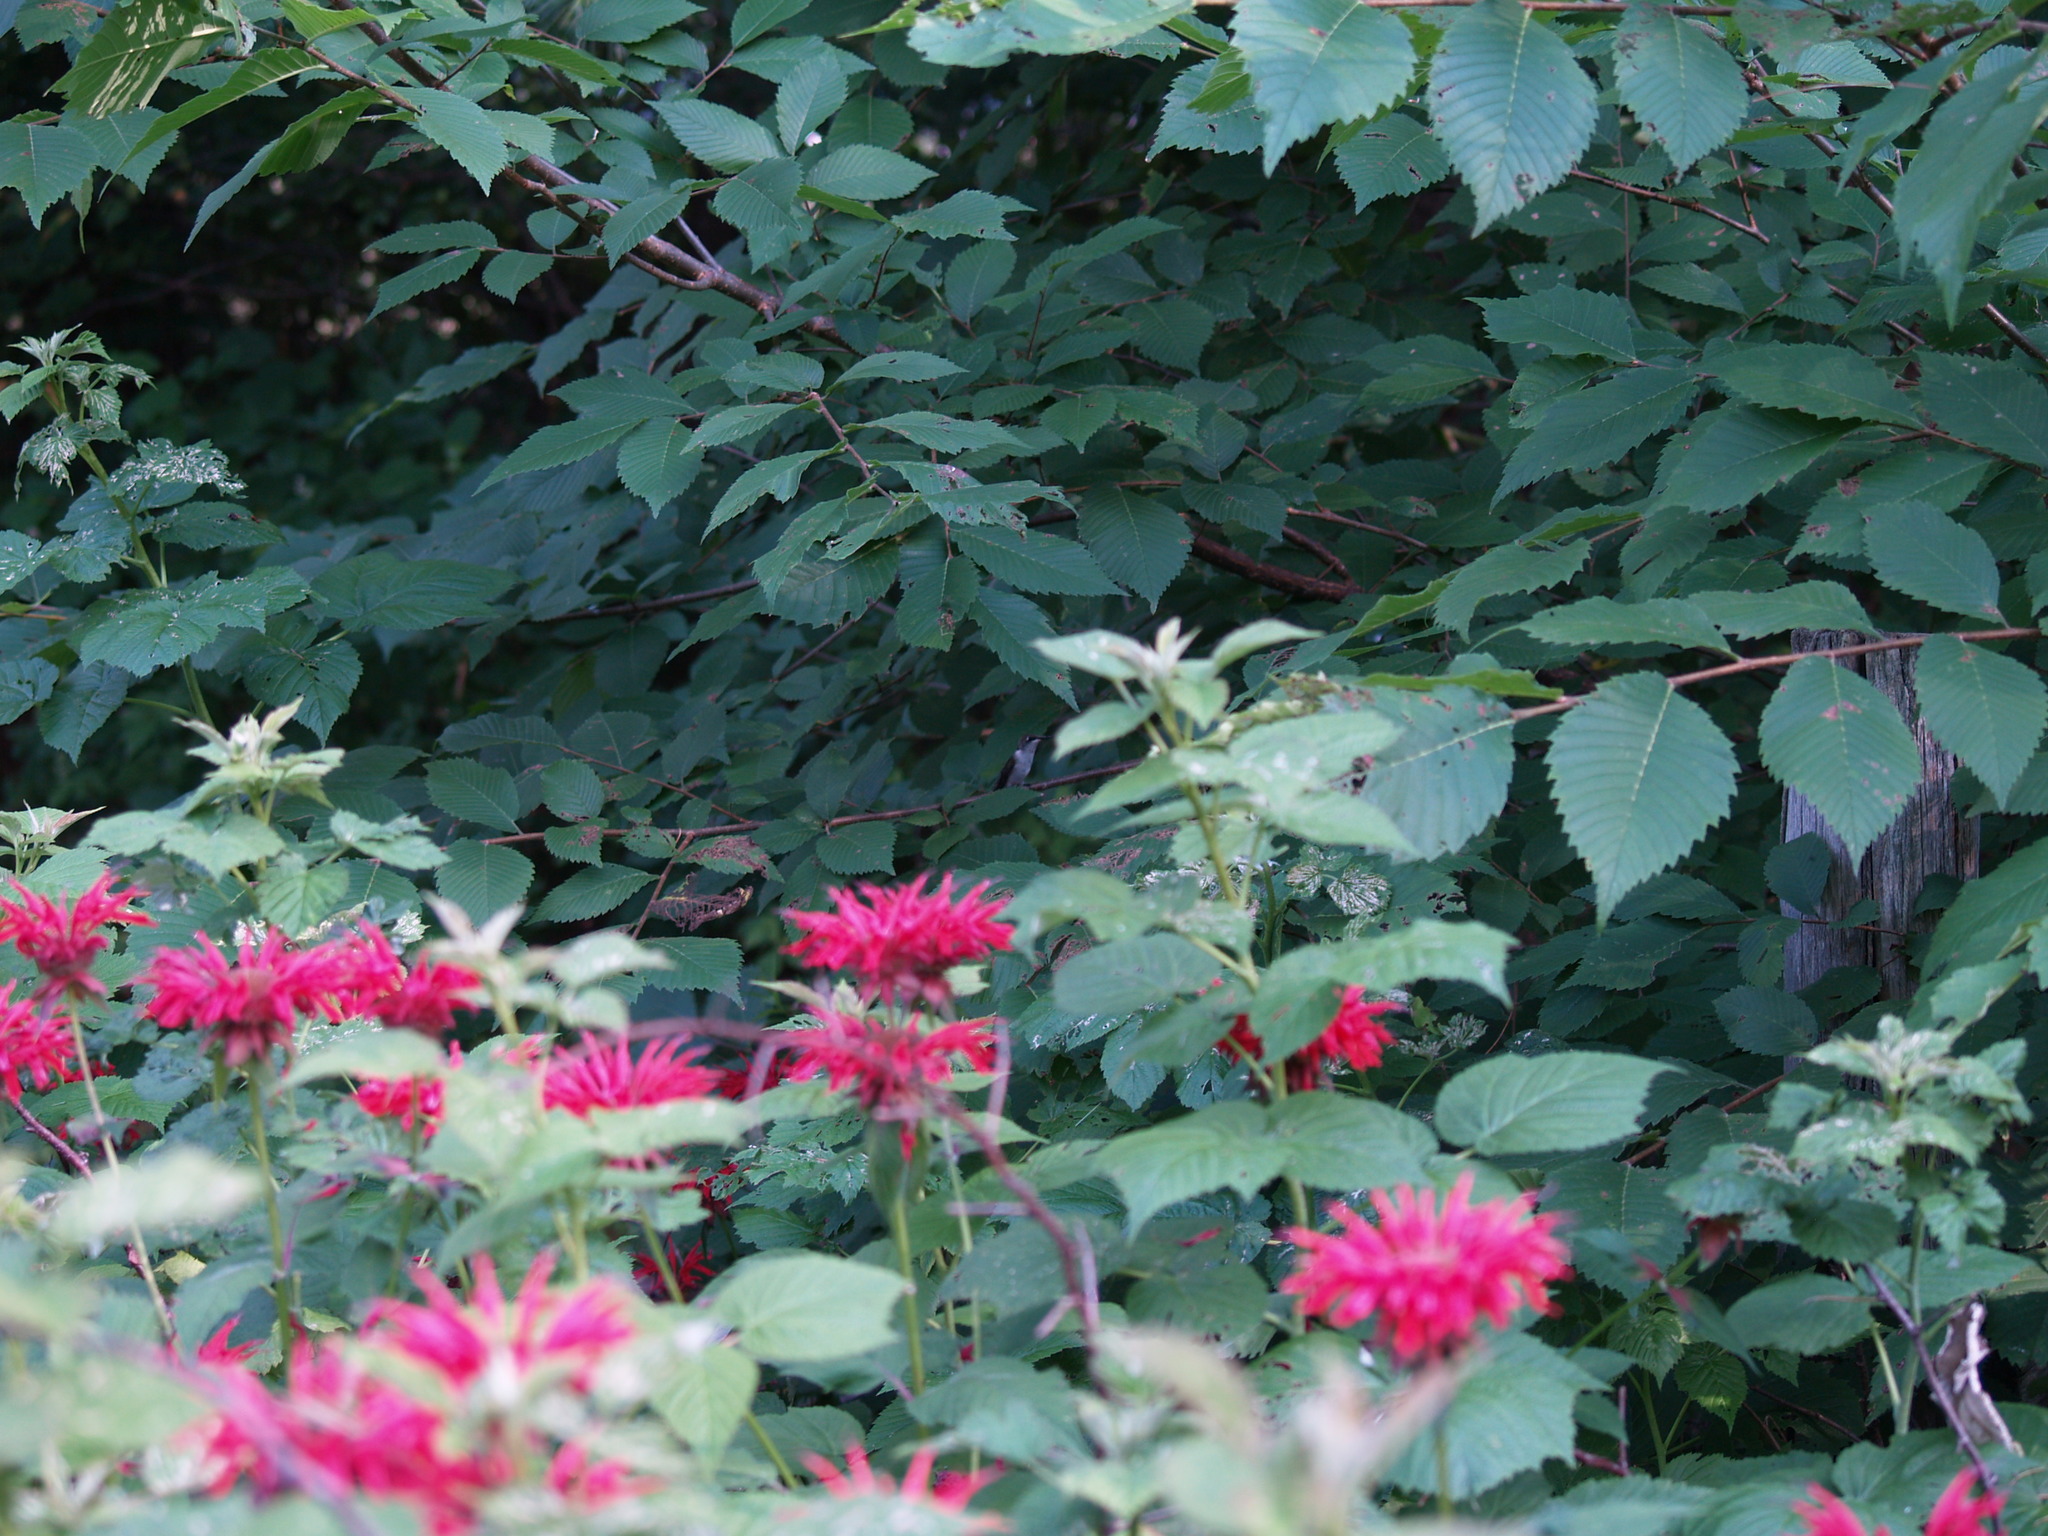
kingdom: Animalia
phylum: Chordata
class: Aves
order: Apodiformes
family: Trochilidae
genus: Archilochus
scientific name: Archilochus colubris
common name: Ruby-throated hummingbird
